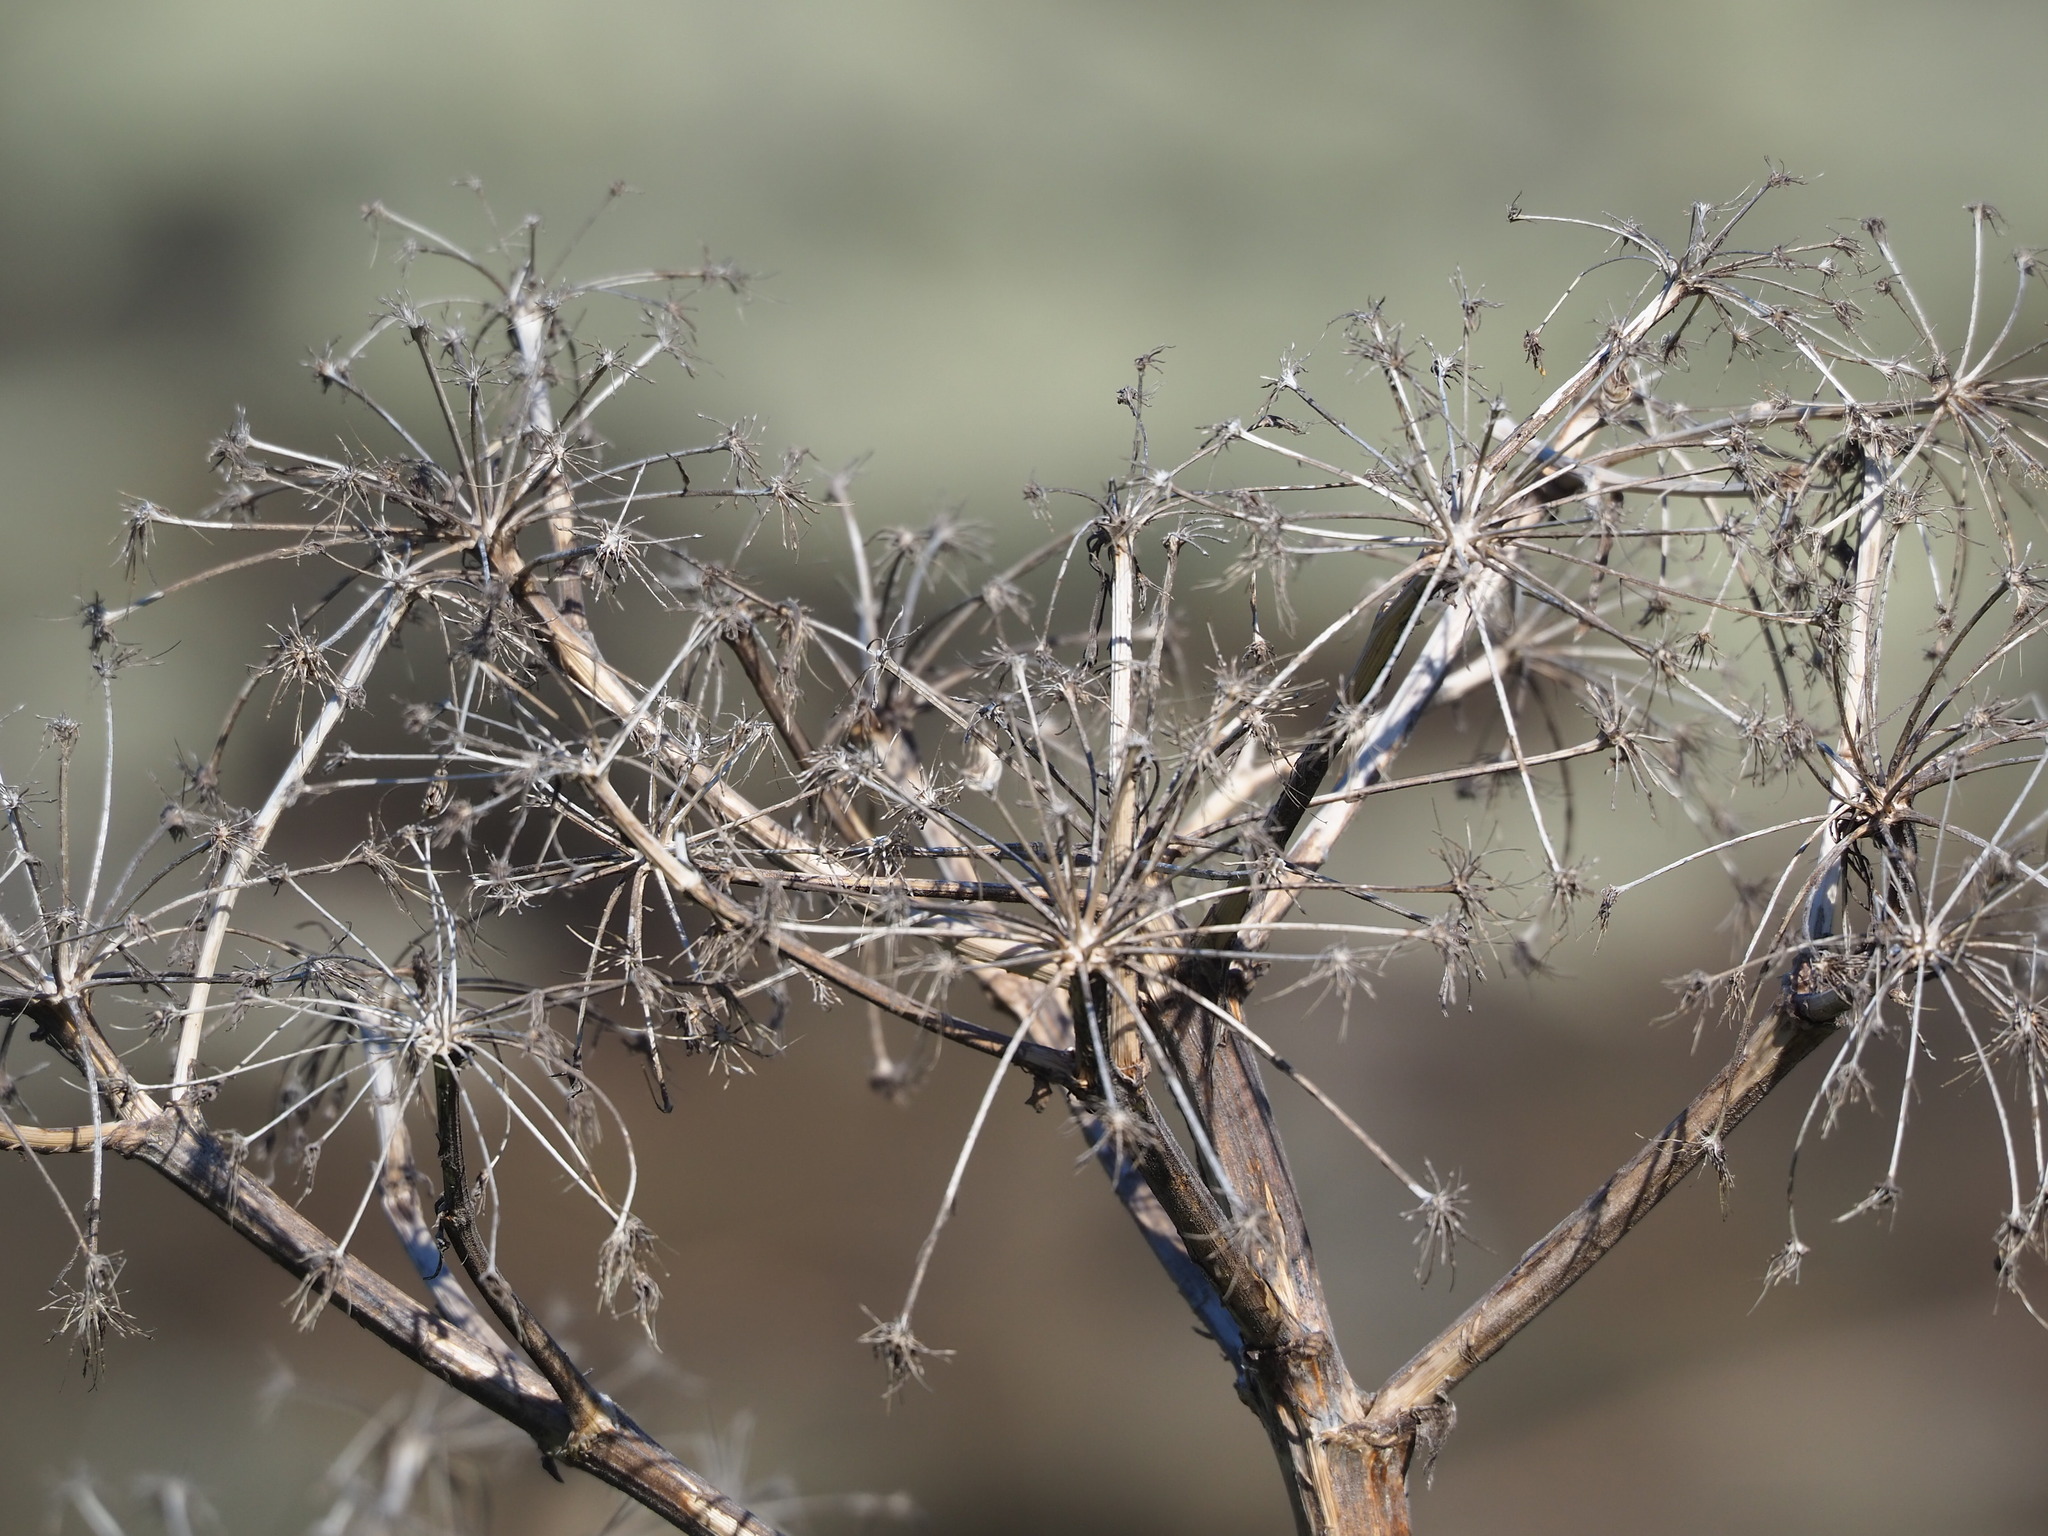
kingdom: Plantae
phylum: Tracheophyta
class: Magnoliopsida
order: Apiales
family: Apiaceae
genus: Angelica
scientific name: Angelica hirsutiflora
